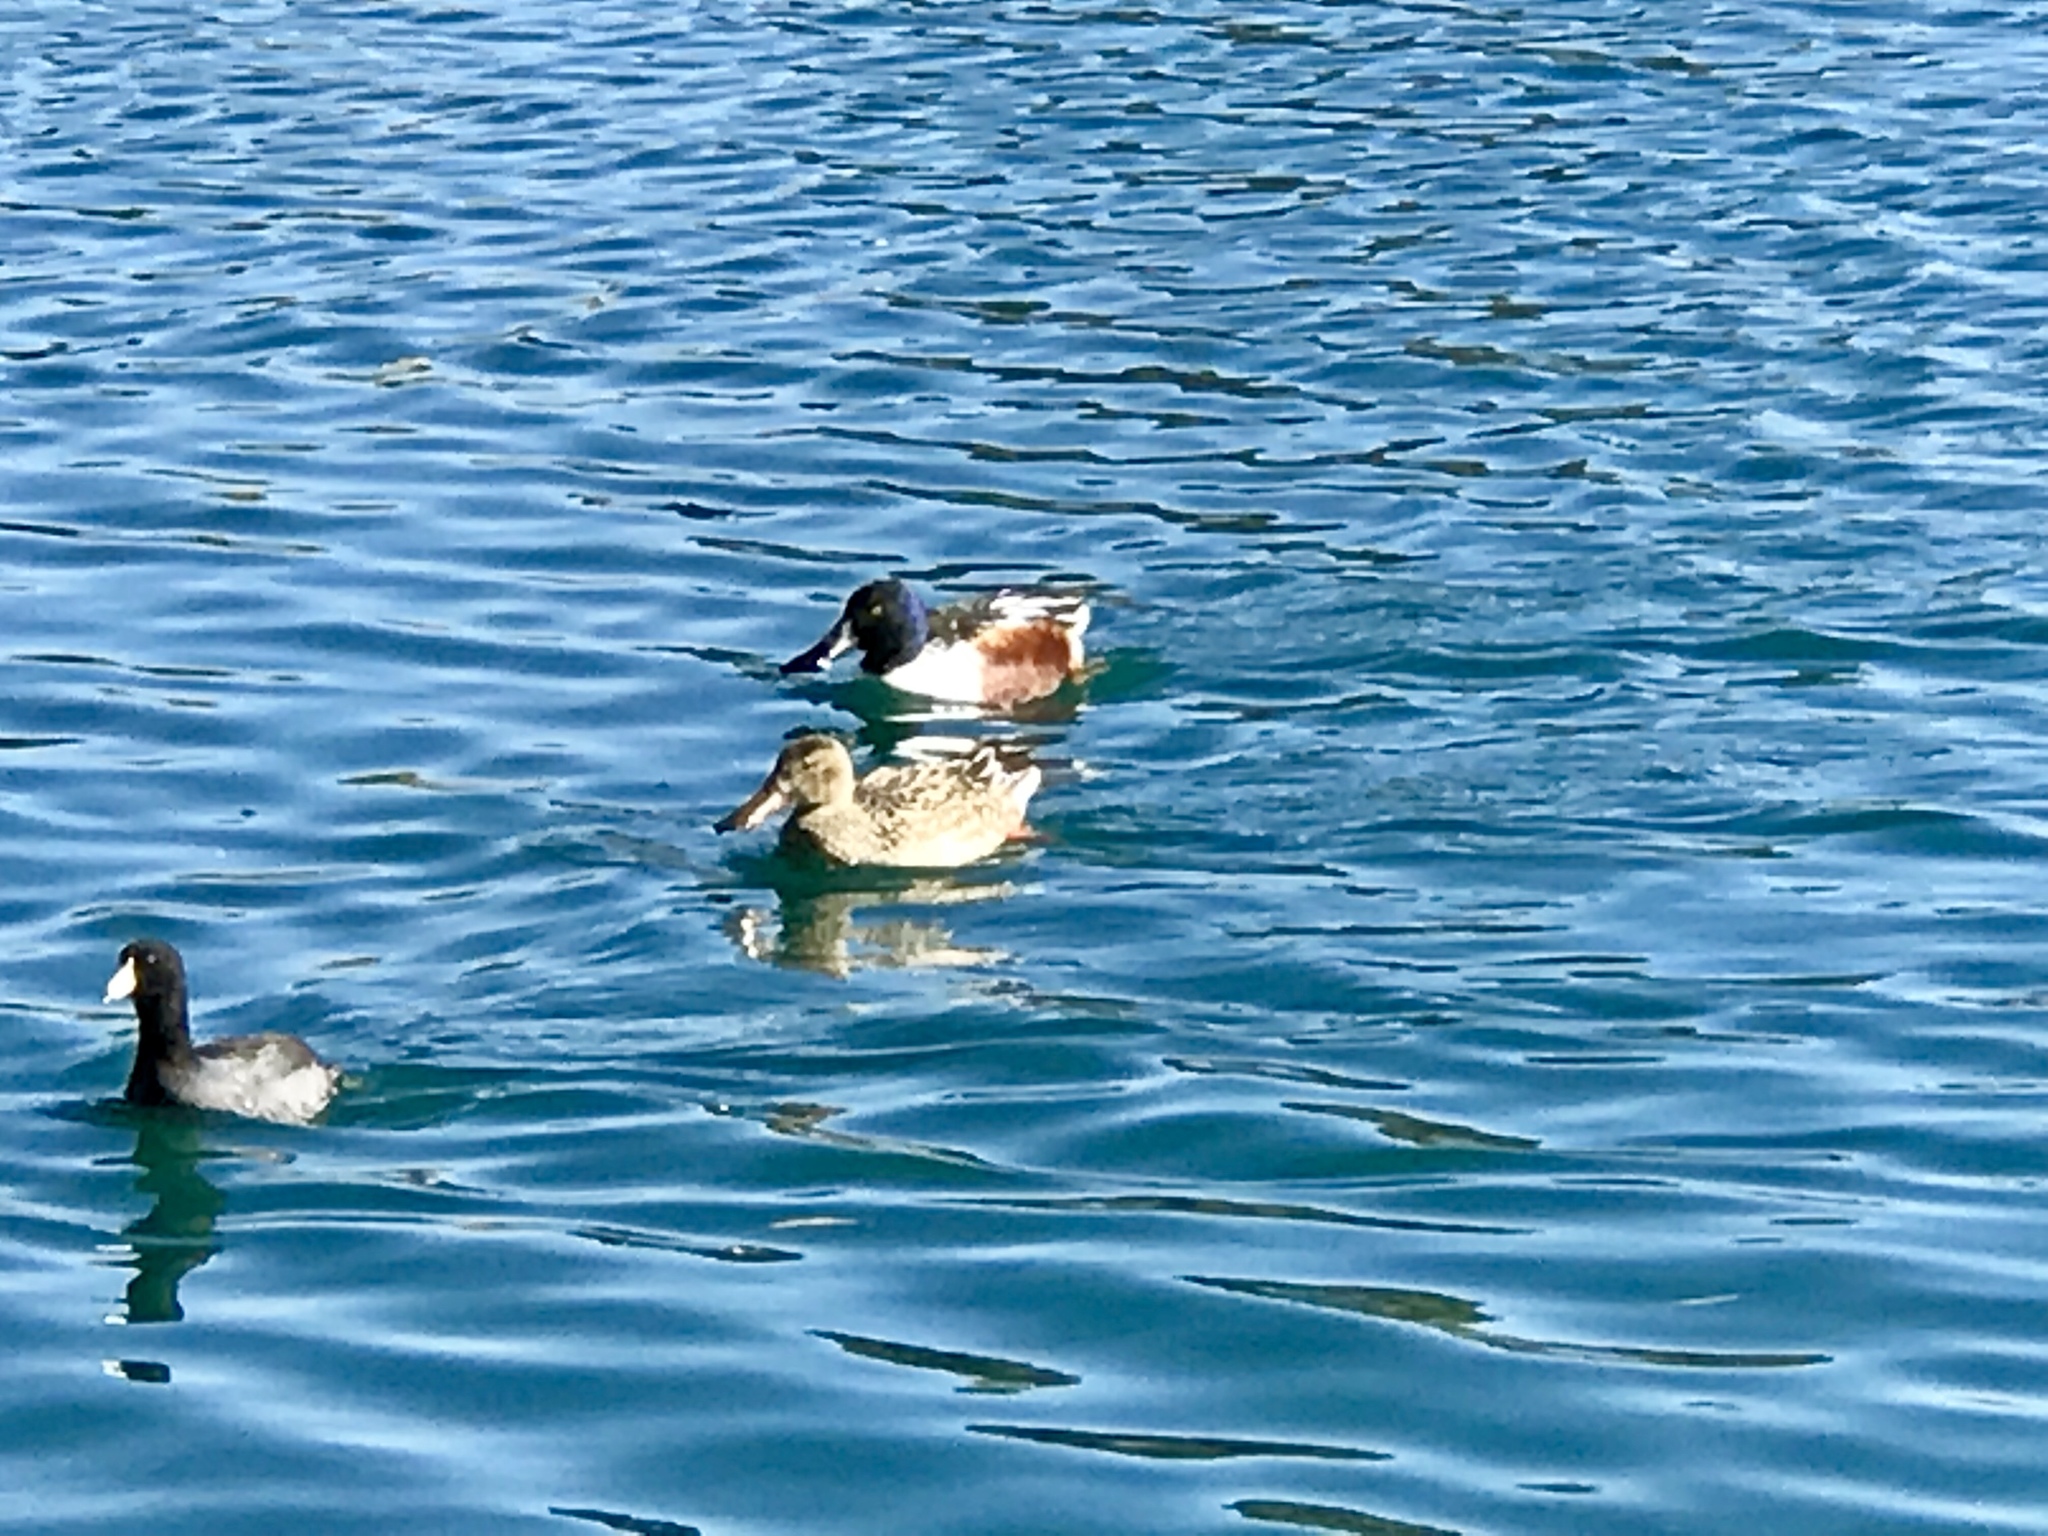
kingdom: Animalia
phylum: Chordata
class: Aves
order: Anseriformes
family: Anatidae
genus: Spatula
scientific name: Spatula clypeata
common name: Northern shoveler
